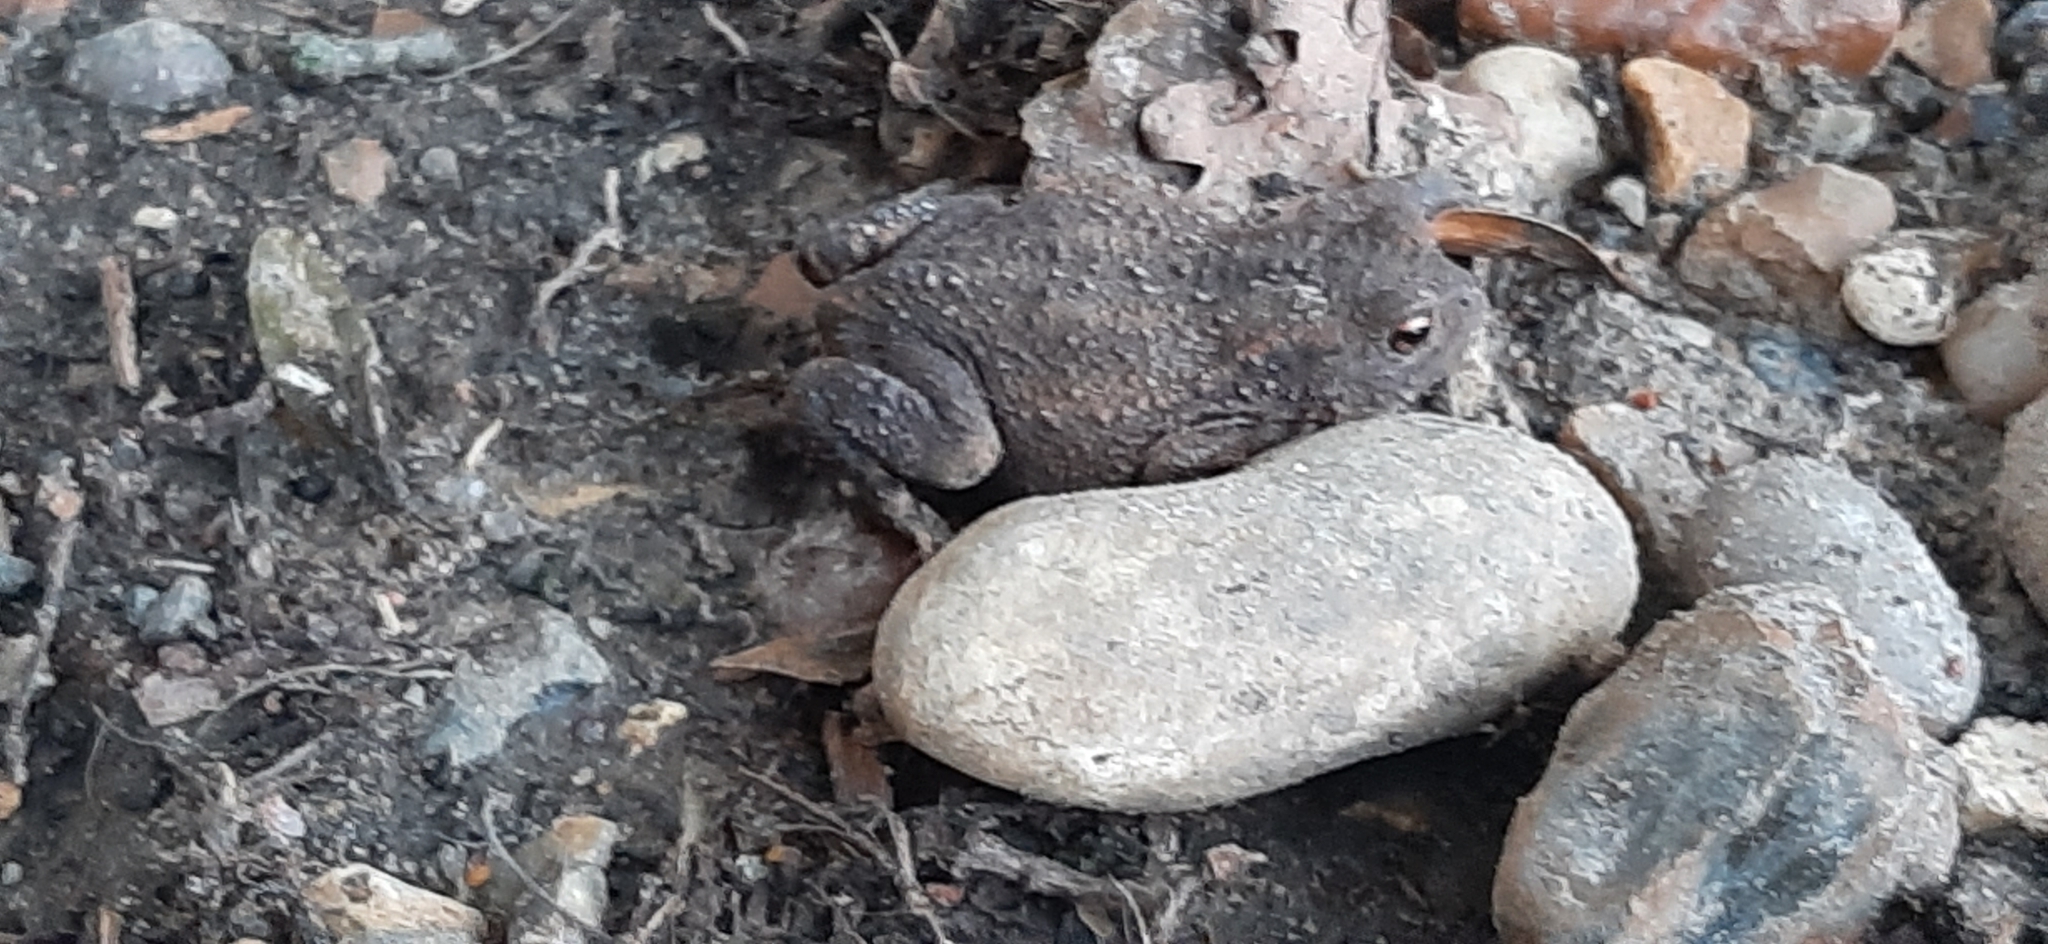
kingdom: Animalia
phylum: Chordata
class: Amphibia
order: Anura
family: Bufonidae
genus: Bufo
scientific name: Bufo bufo
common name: Common toad
